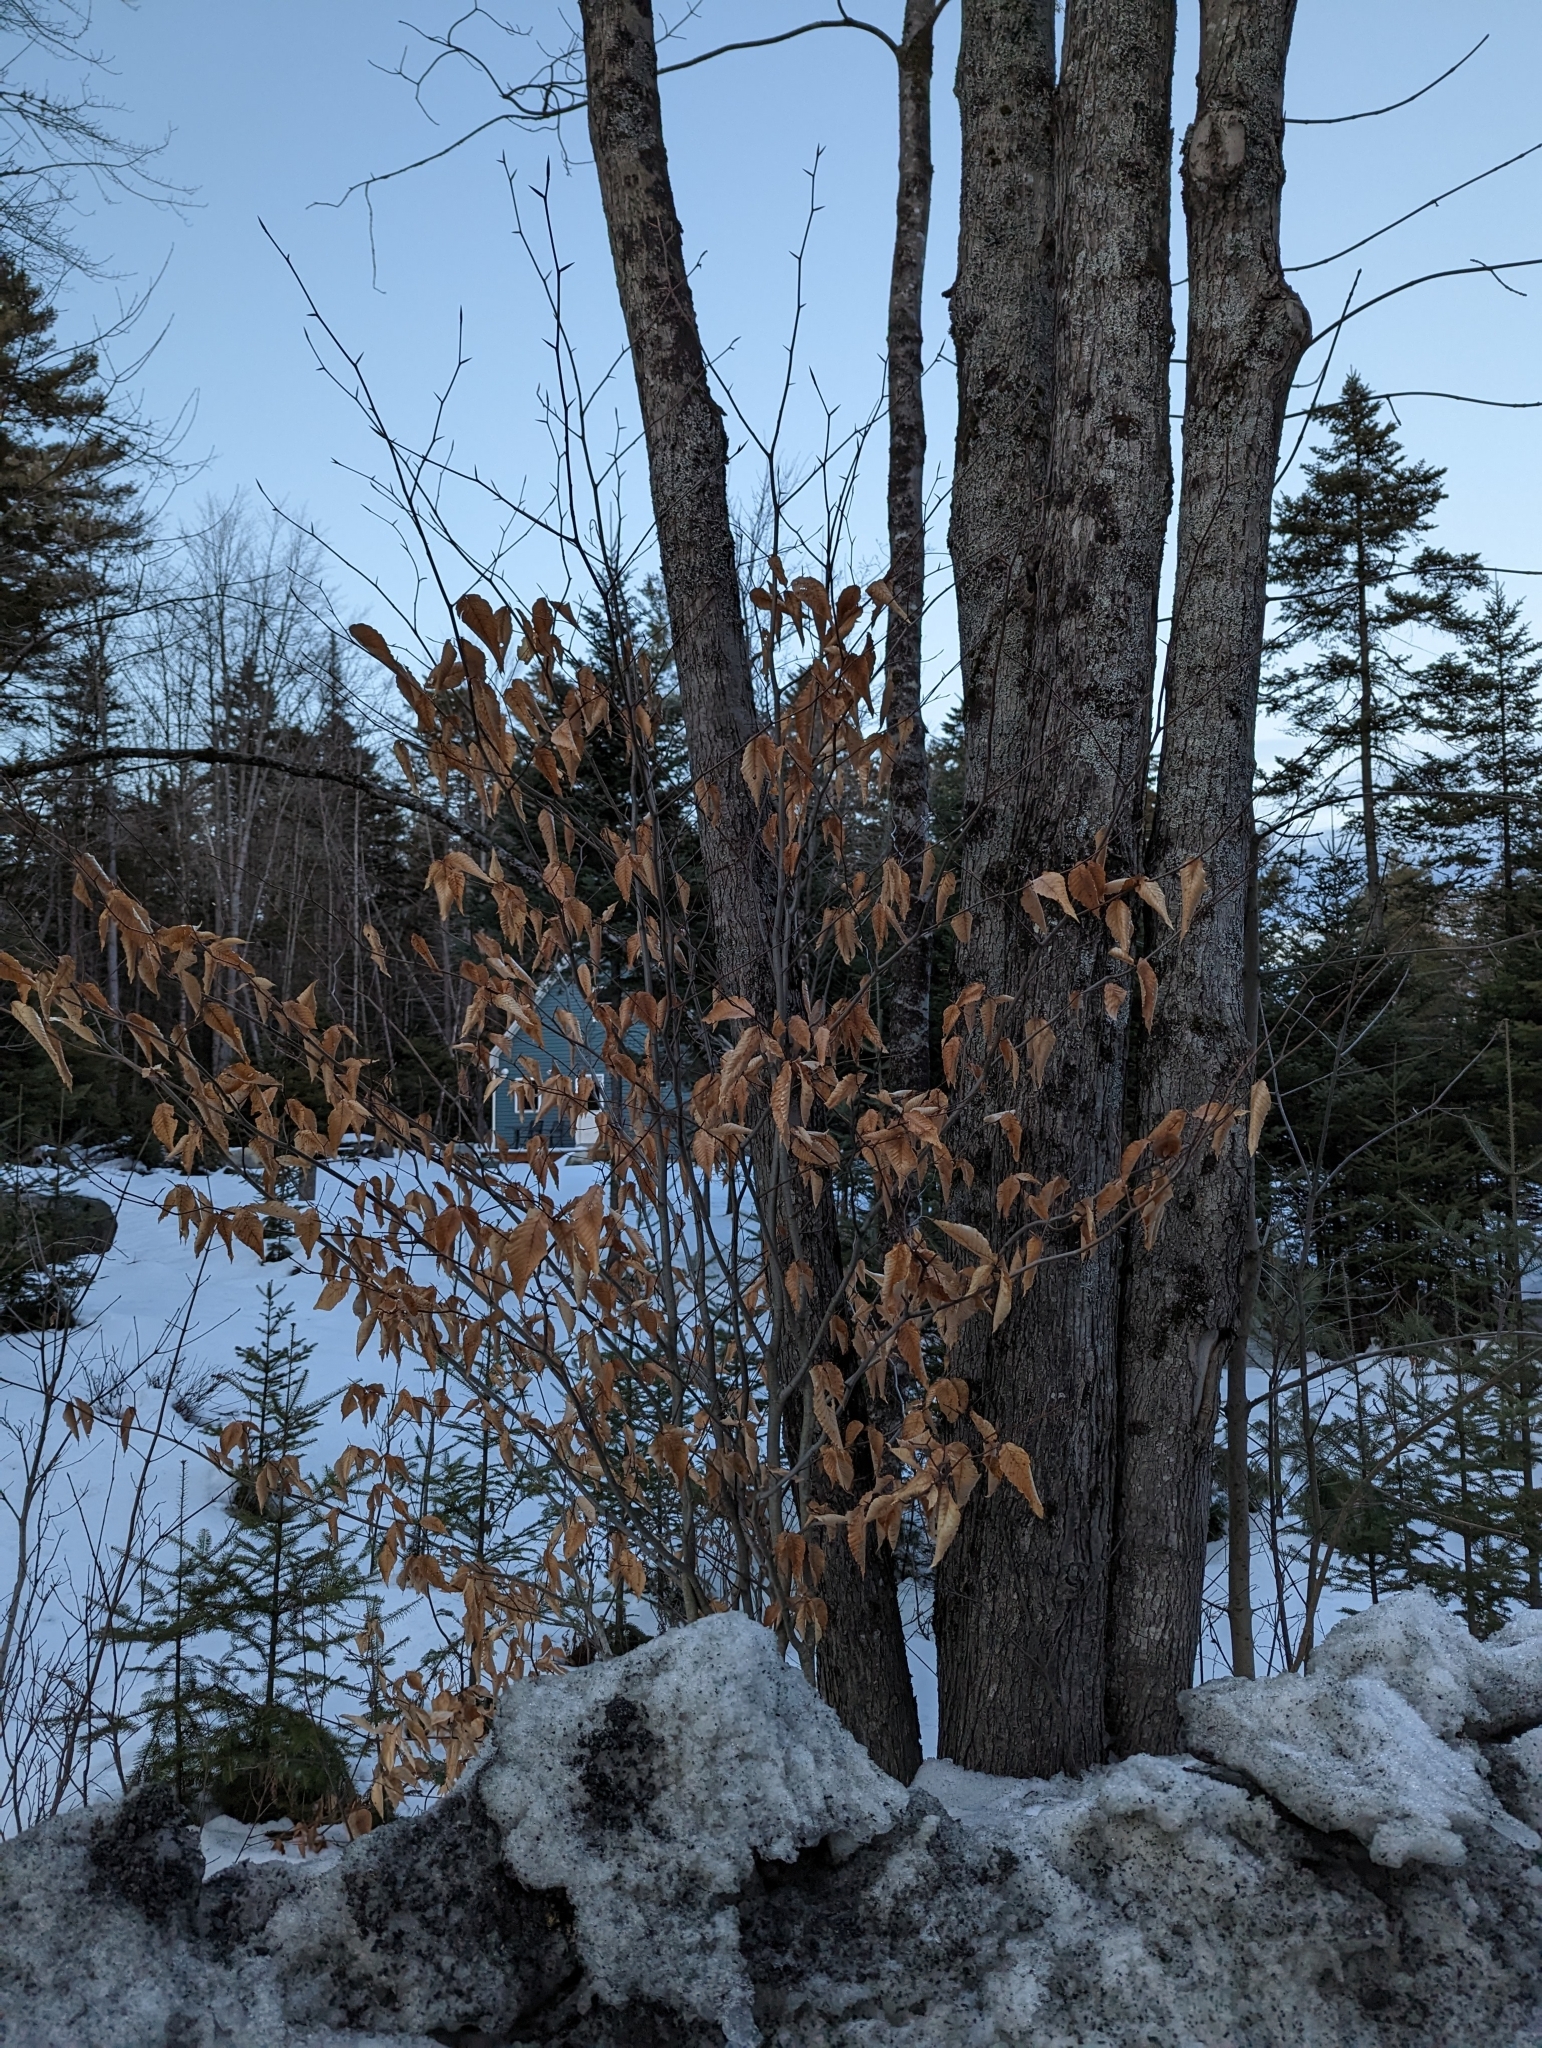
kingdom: Plantae
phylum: Tracheophyta
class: Magnoliopsida
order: Fagales
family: Fagaceae
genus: Fagus
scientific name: Fagus grandifolia
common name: American beech
